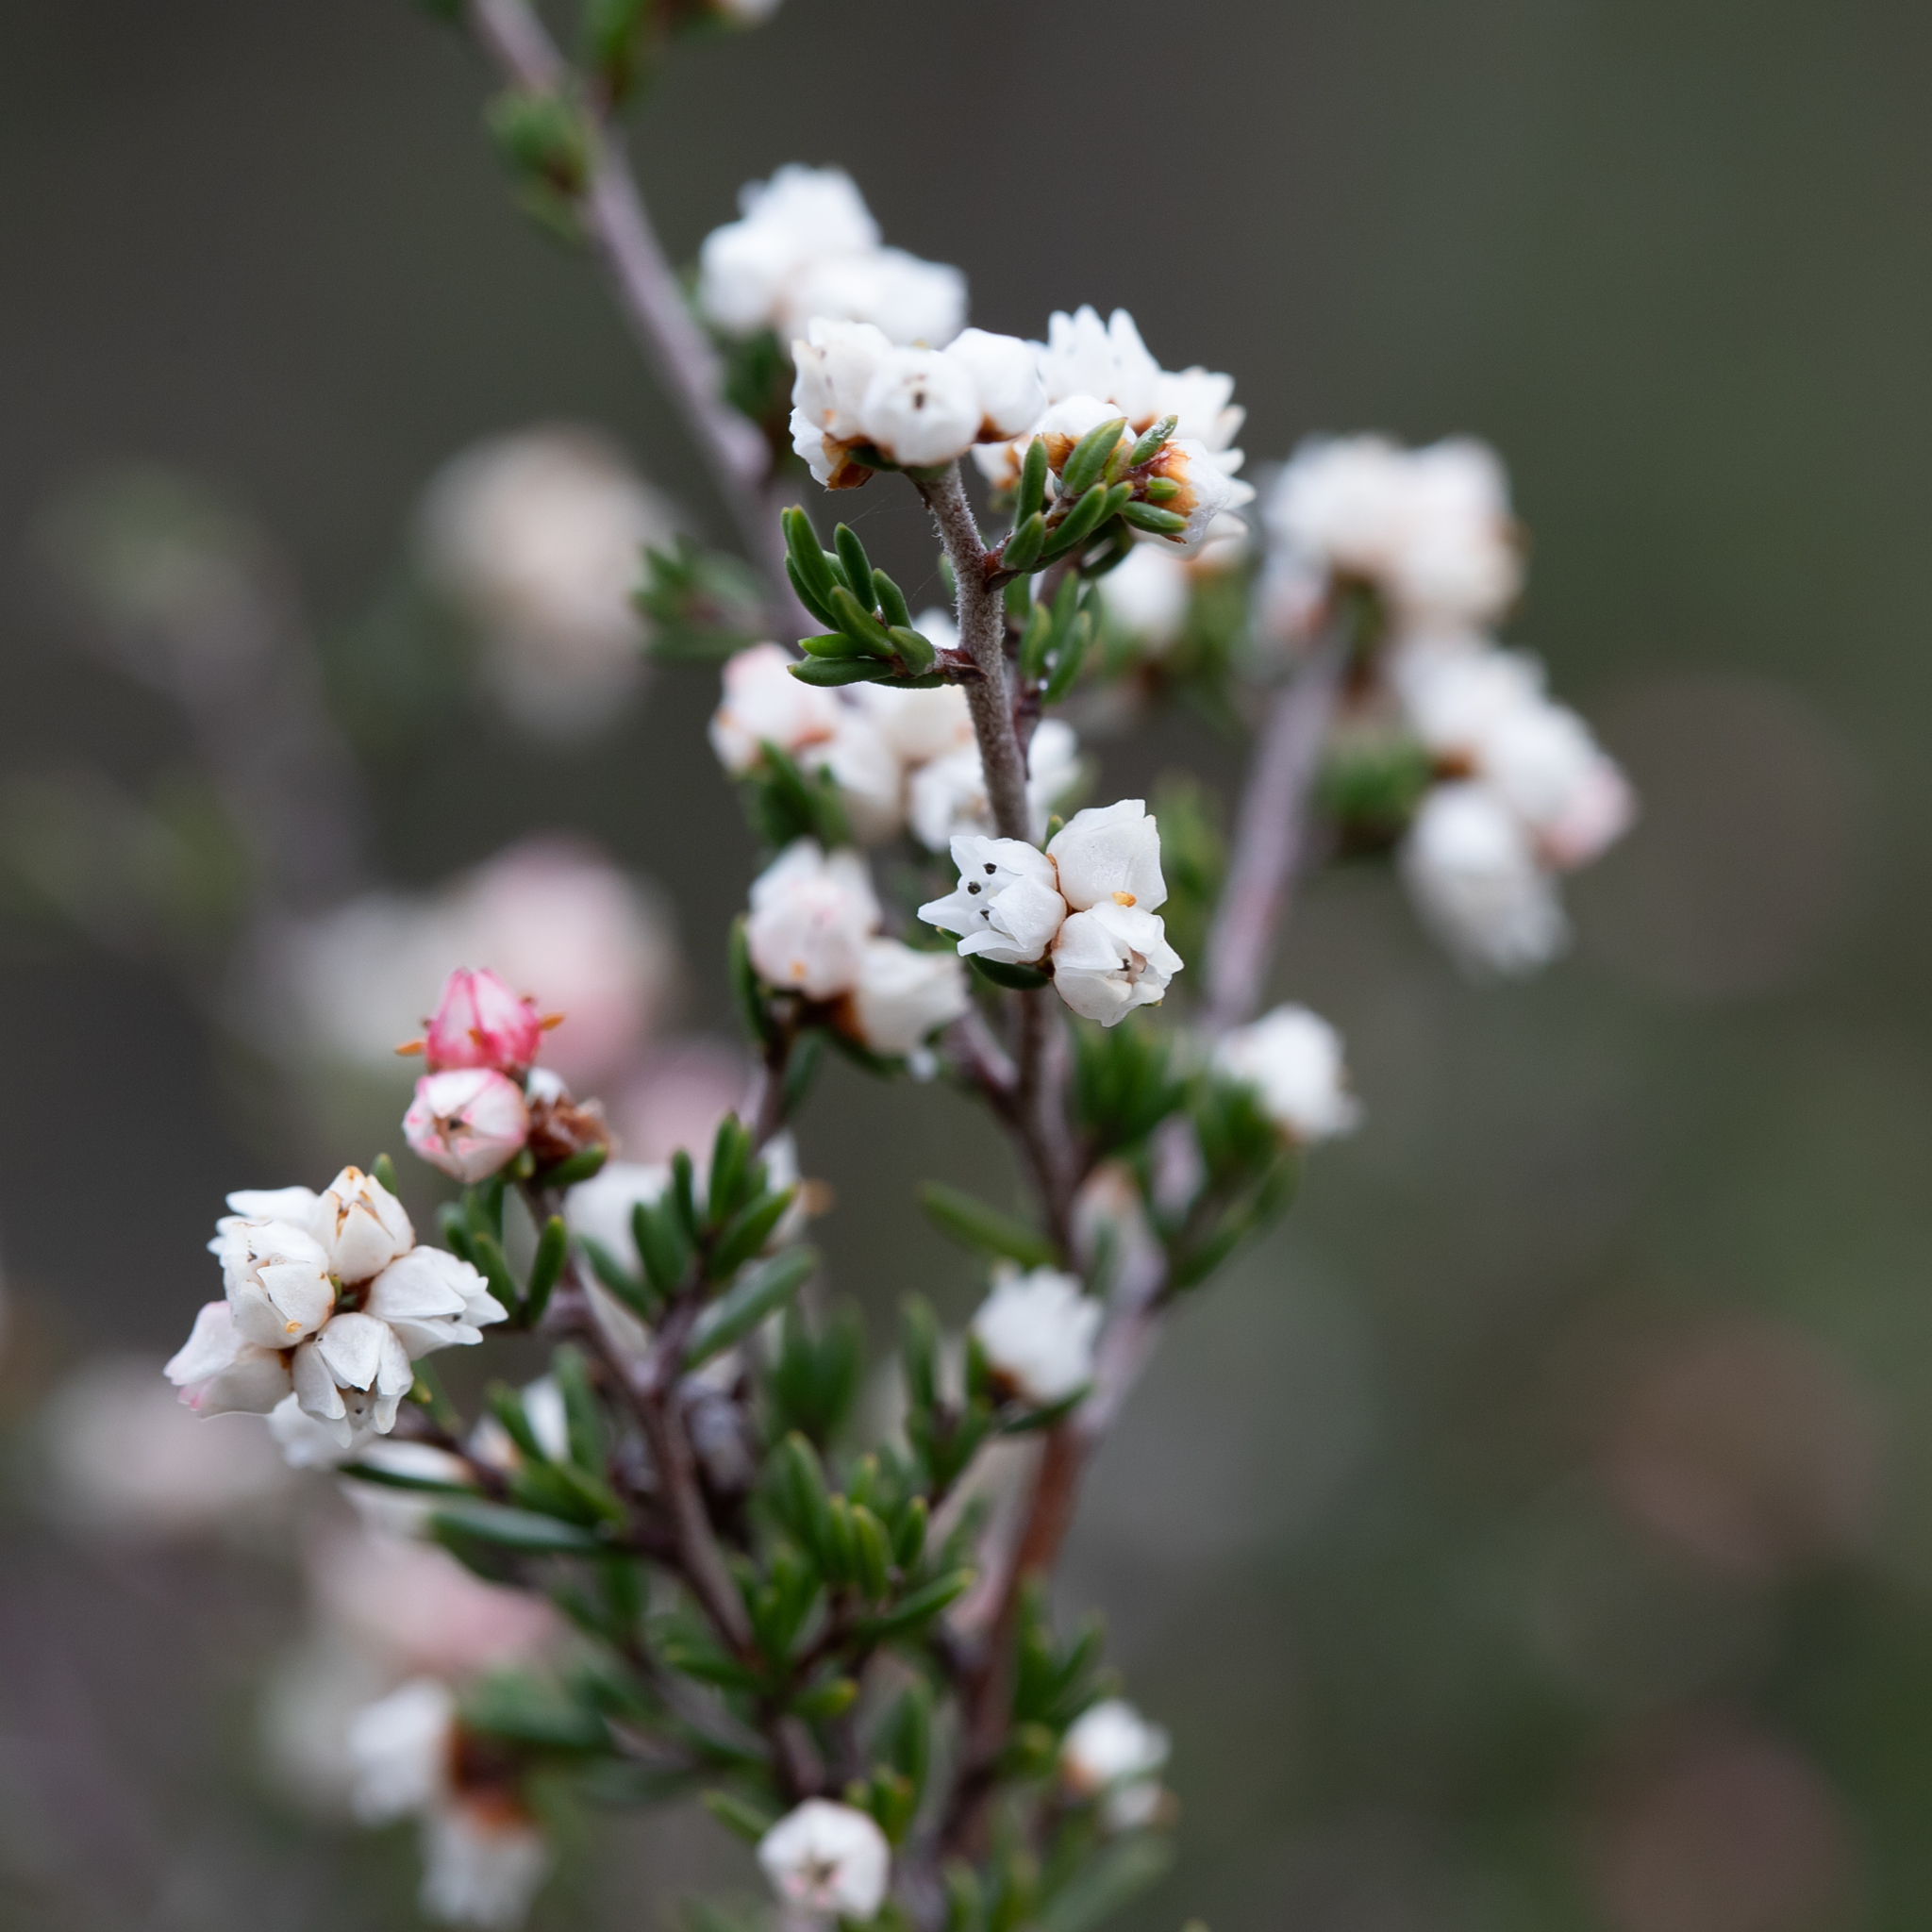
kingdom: Plantae
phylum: Tracheophyta
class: Magnoliopsida
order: Rosales
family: Rhamnaceae
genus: Cryptandra
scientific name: Cryptandra tomentosa
